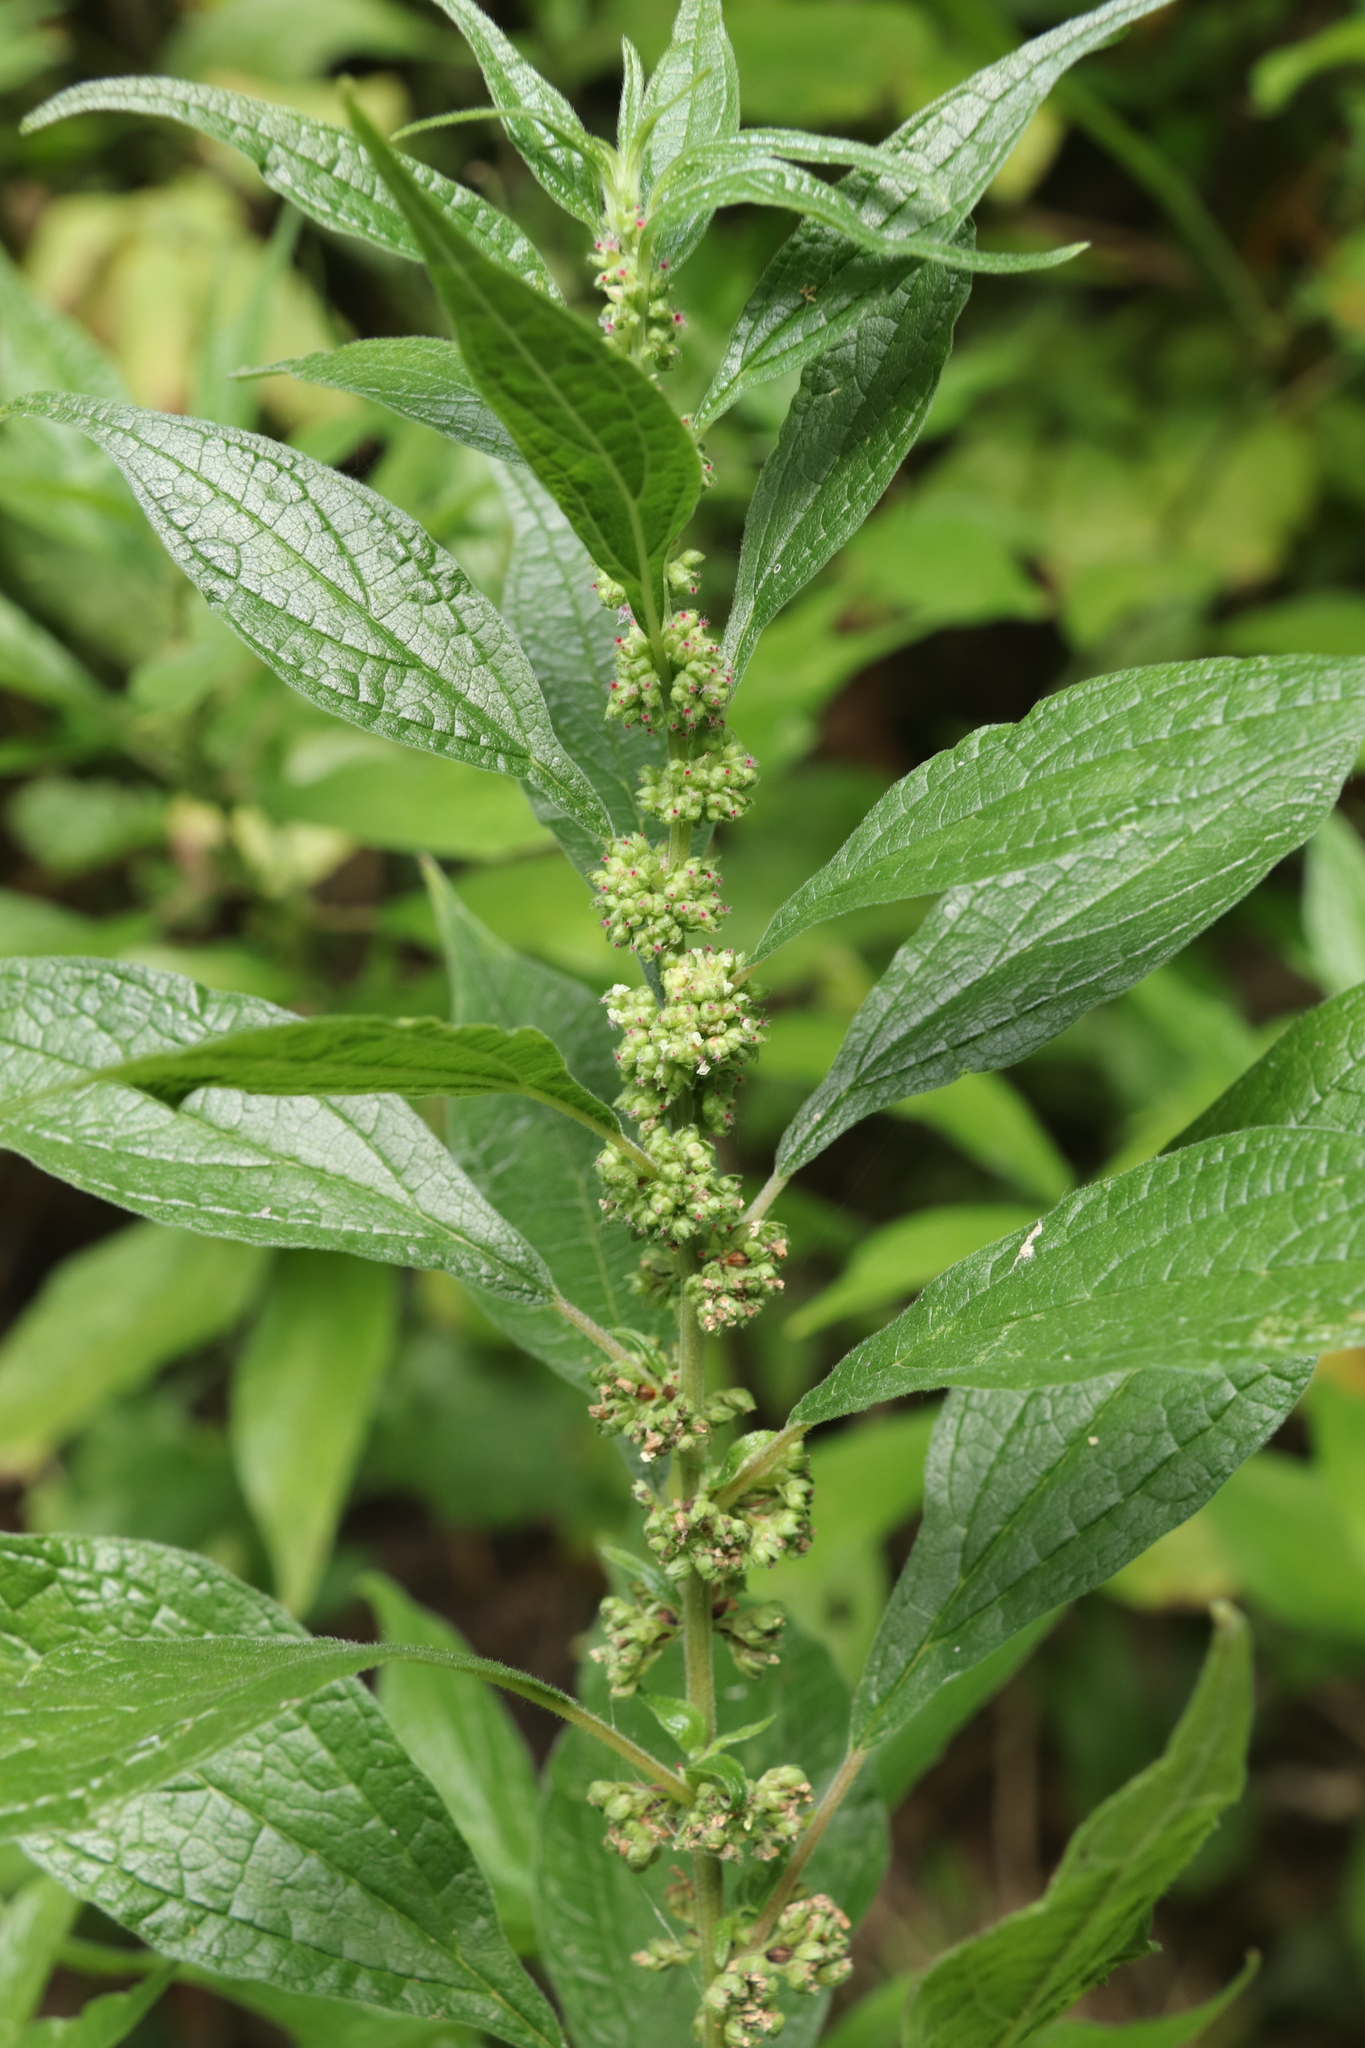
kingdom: Plantae
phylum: Tracheophyta
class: Magnoliopsida
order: Rosales
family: Urticaceae
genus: Parietaria
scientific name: Parietaria officinalis
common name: Eastern pellitory-of-the-wall
